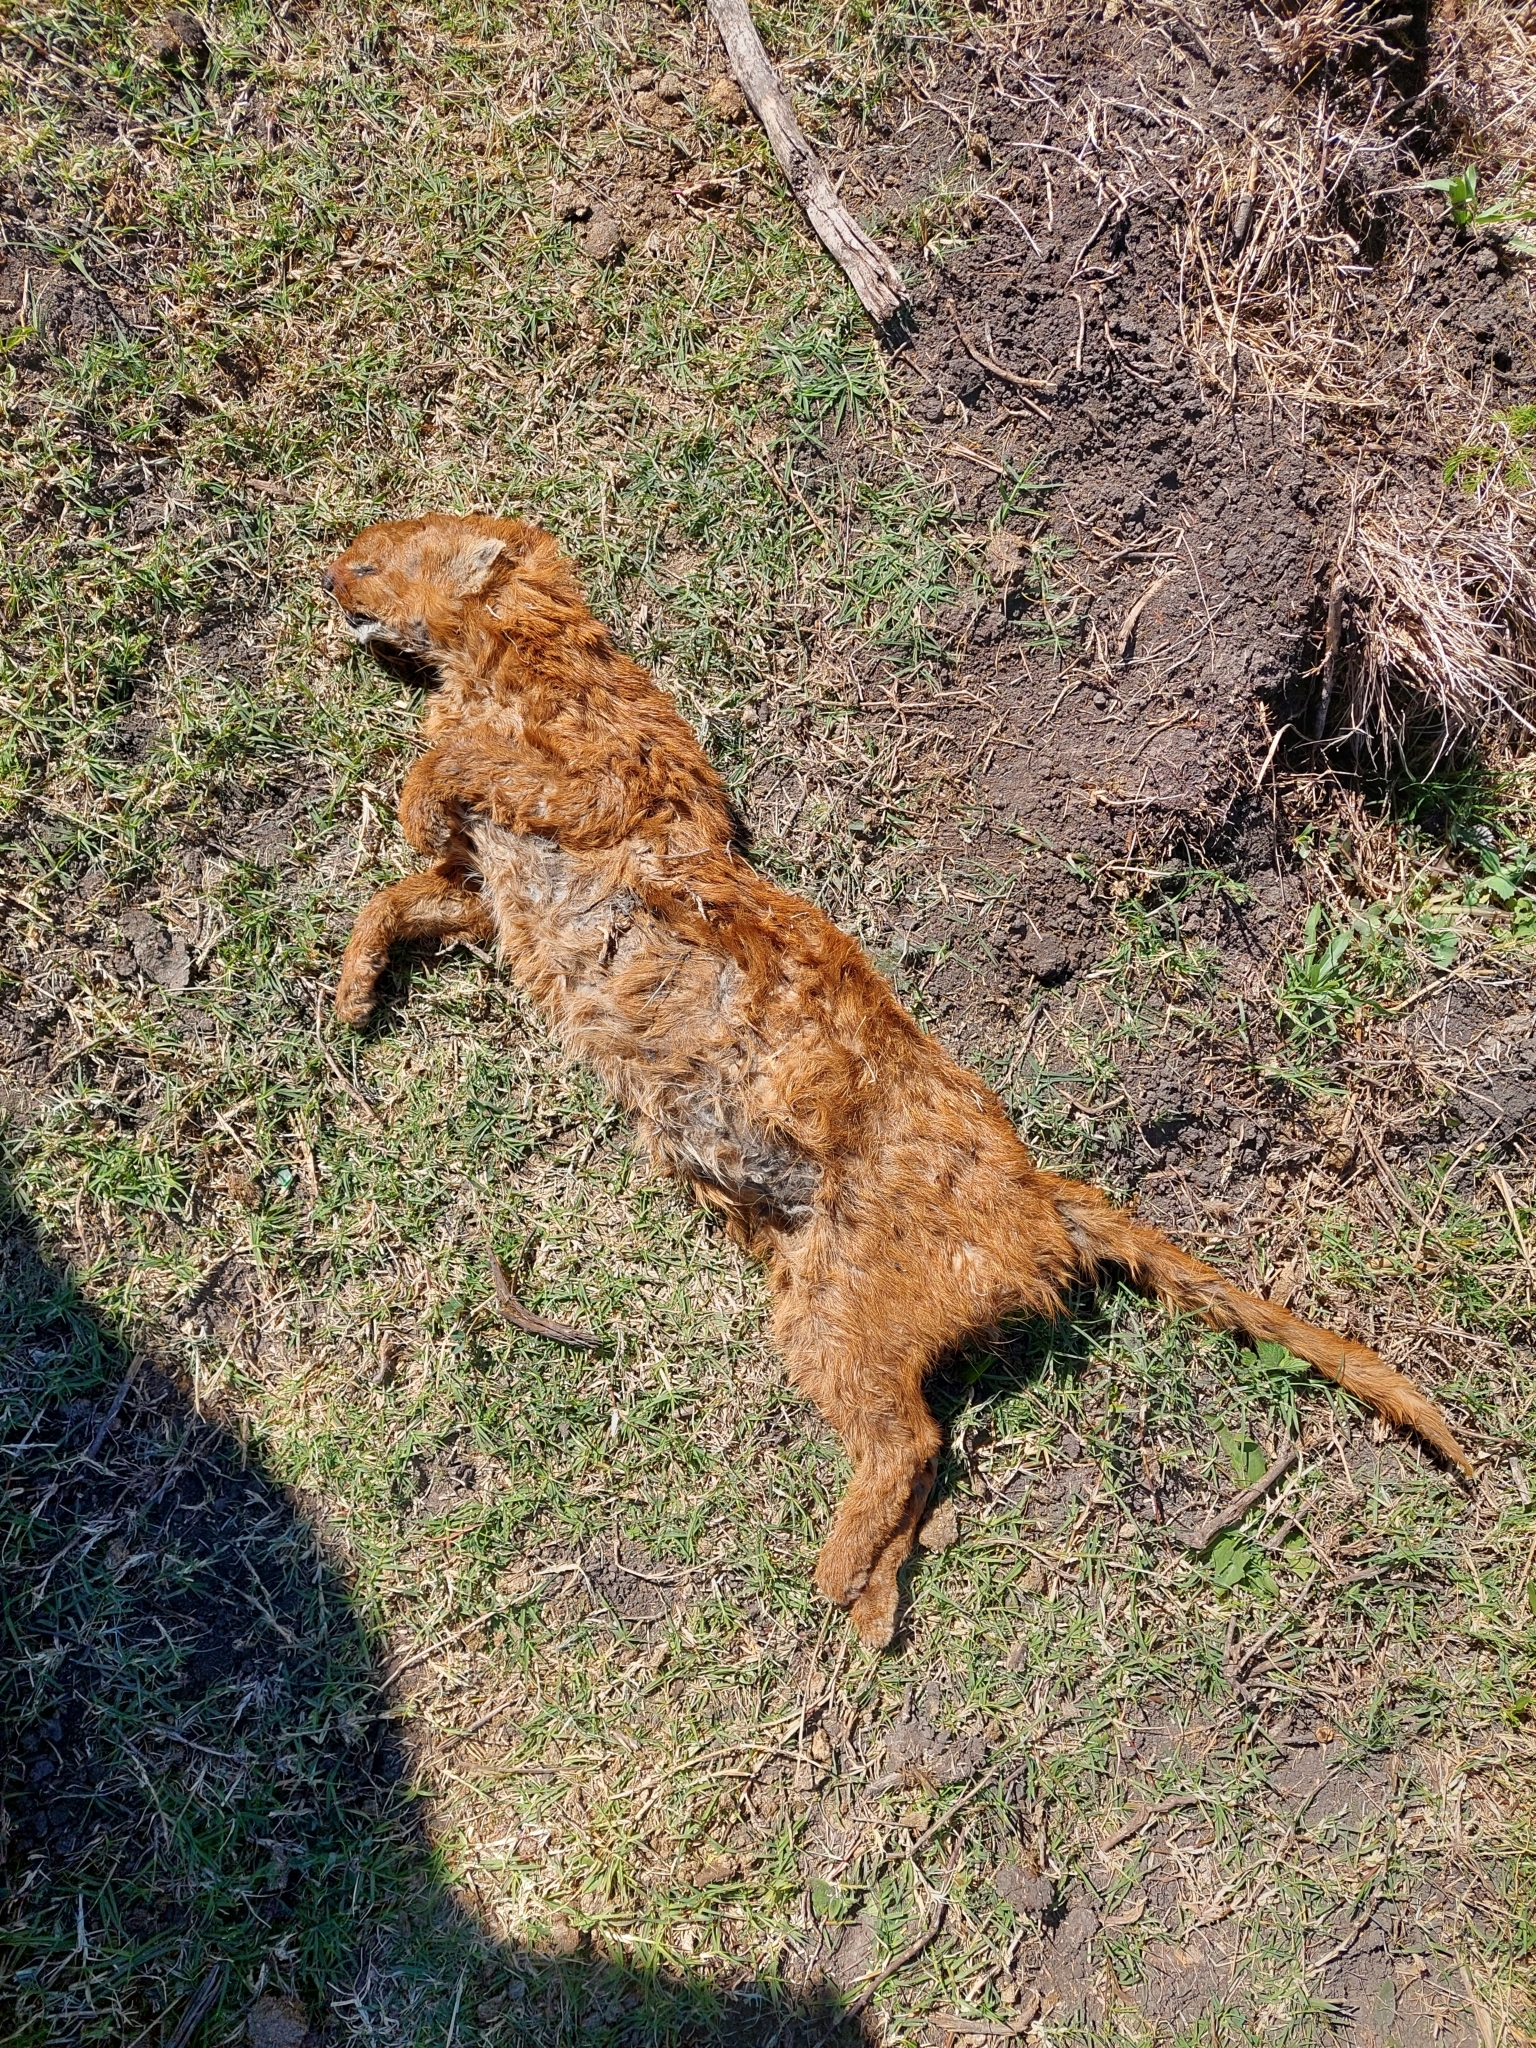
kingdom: Animalia
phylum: Chordata
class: Mammalia
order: Carnivora
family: Felidae
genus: Puma
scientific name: Puma yagouaroundi
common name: Jaguarundi
